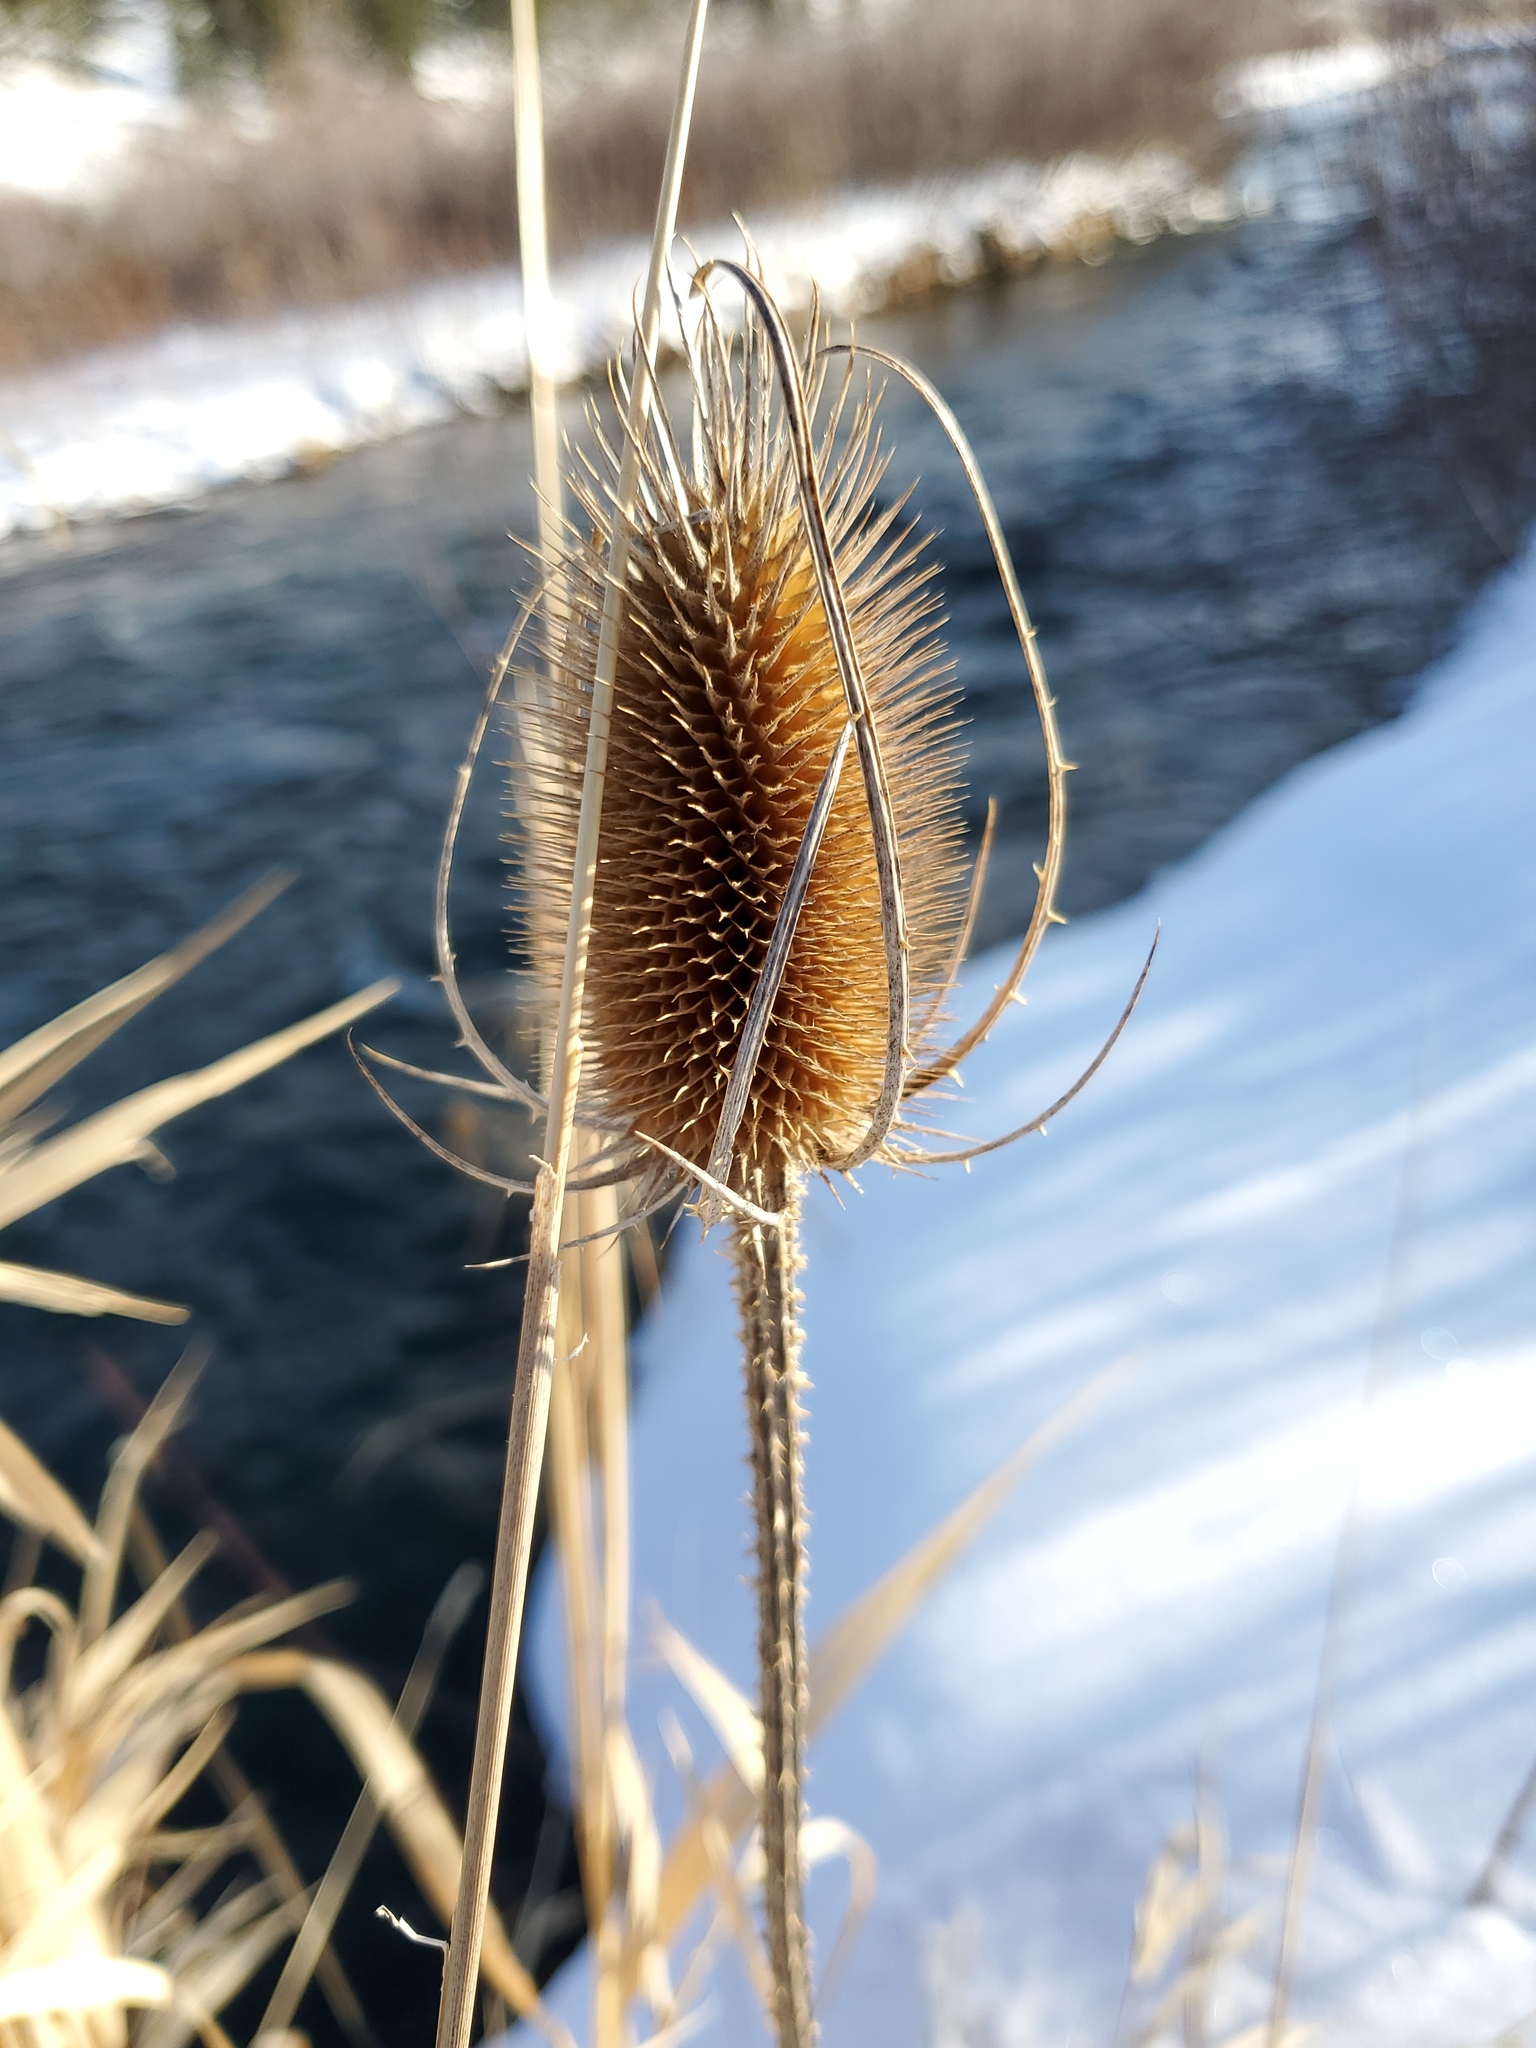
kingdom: Plantae
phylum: Tracheophyta
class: Magnoliopsida
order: Dipsacales
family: Caprifoliaceae
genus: Dipsacus
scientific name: Dipsacus fullonum
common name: Teasel
